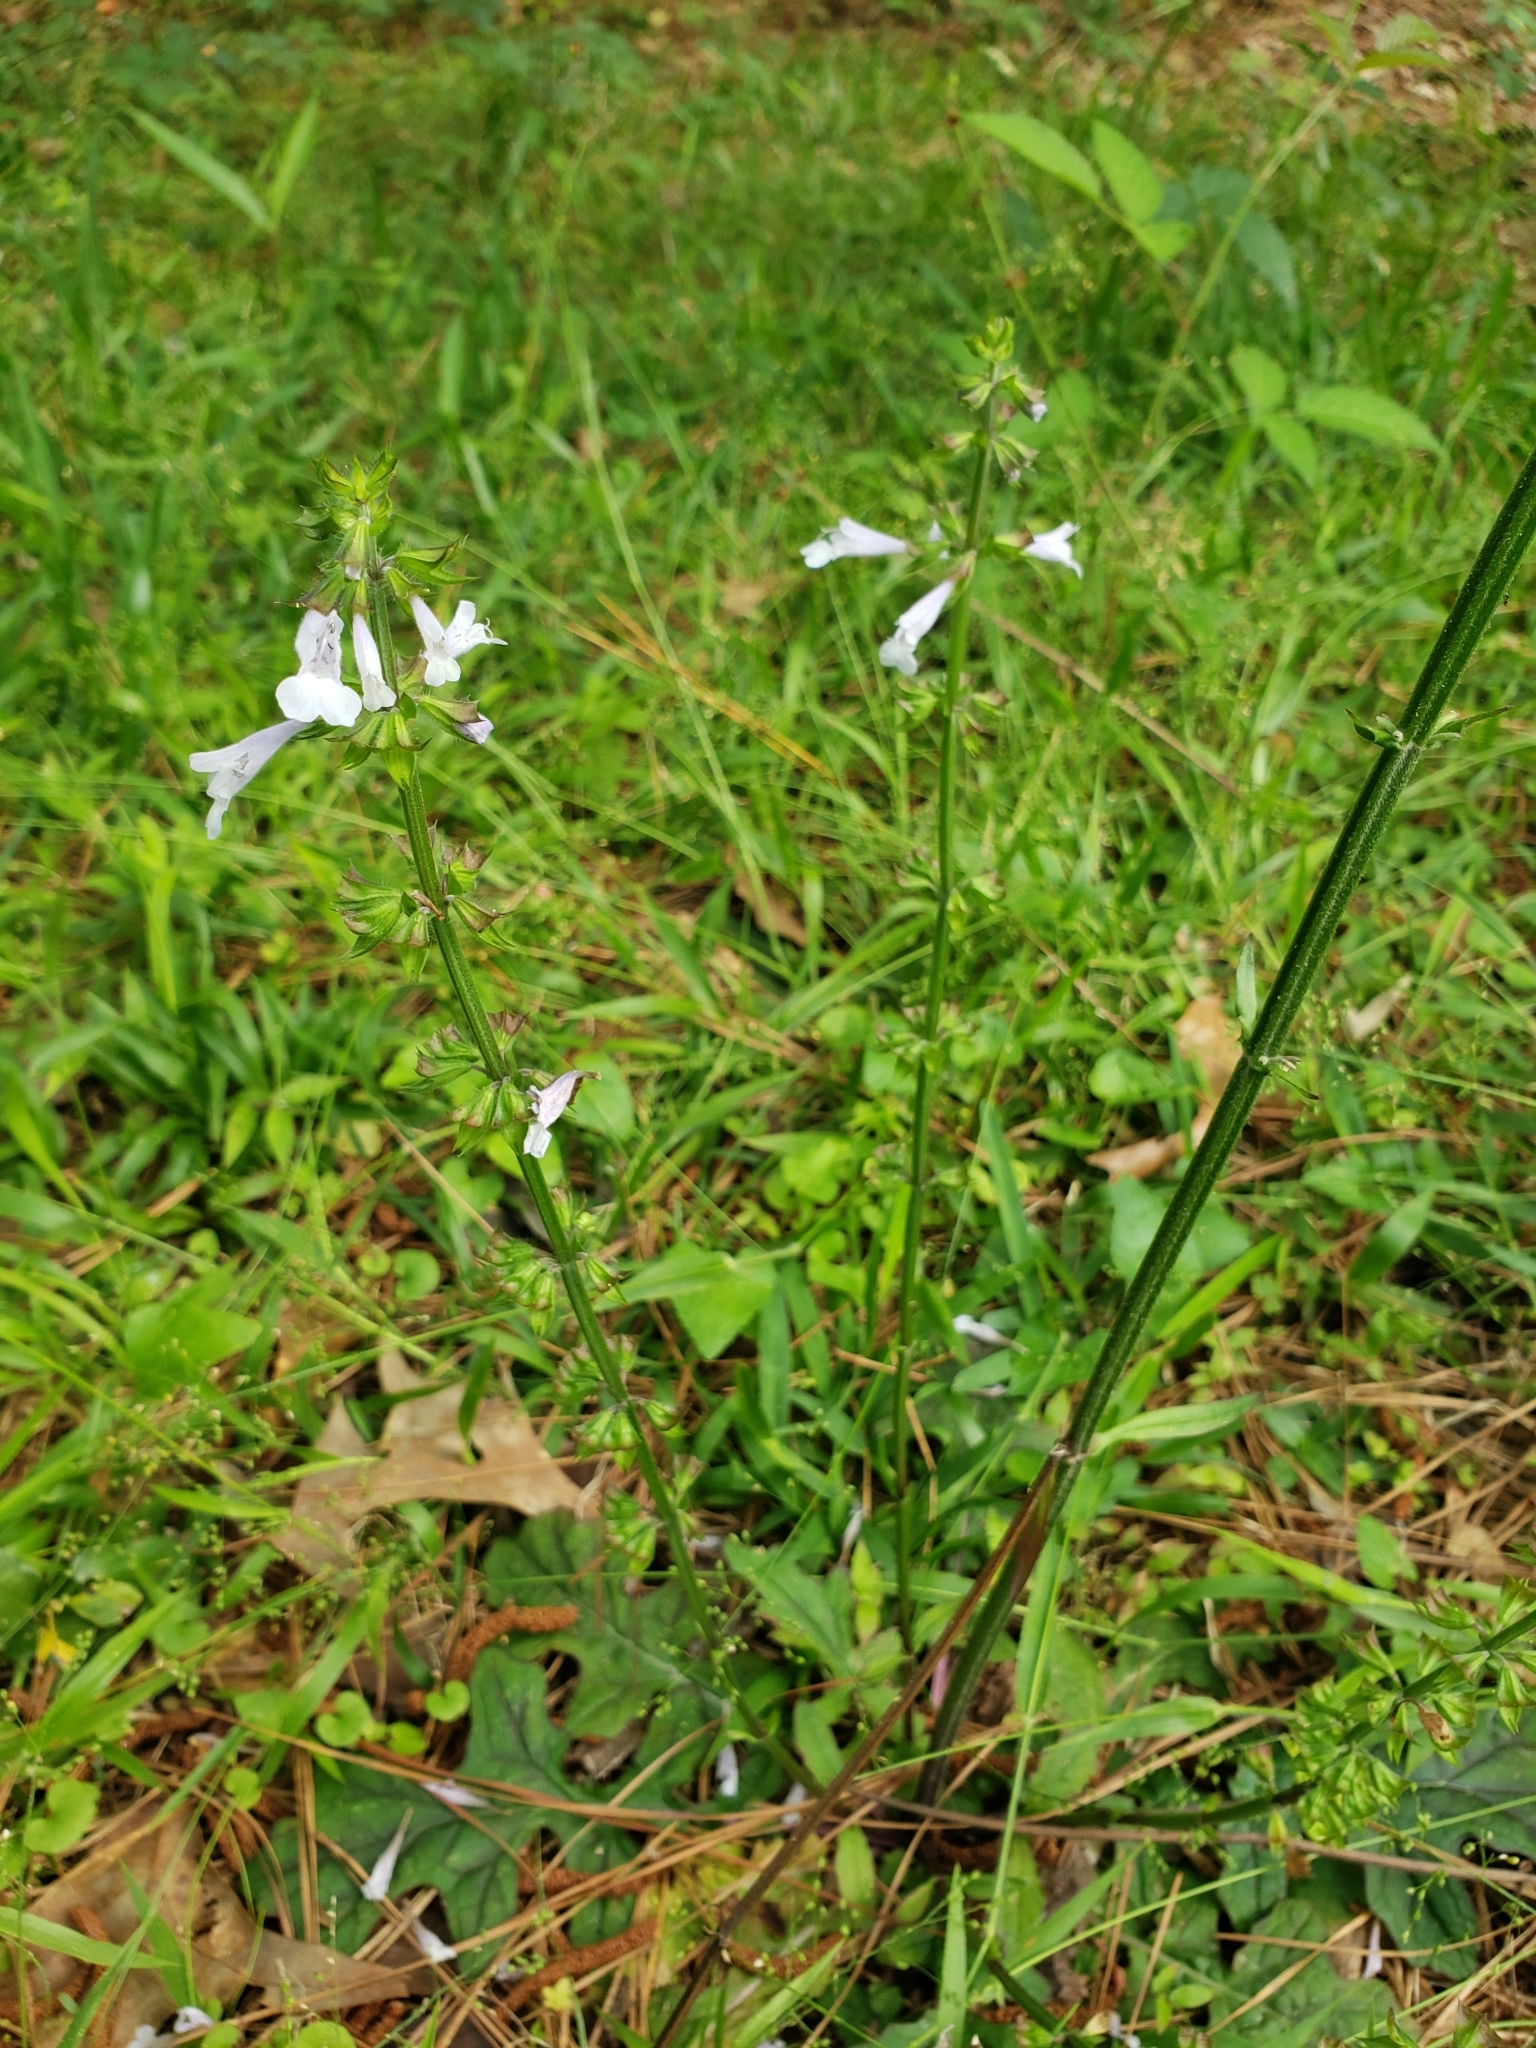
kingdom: Plantae
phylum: Tracheophyta
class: Magnoliopsida
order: Lamiales
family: Lamiaceae
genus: Salvia
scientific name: Salvia lyrata
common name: Cancerweed
